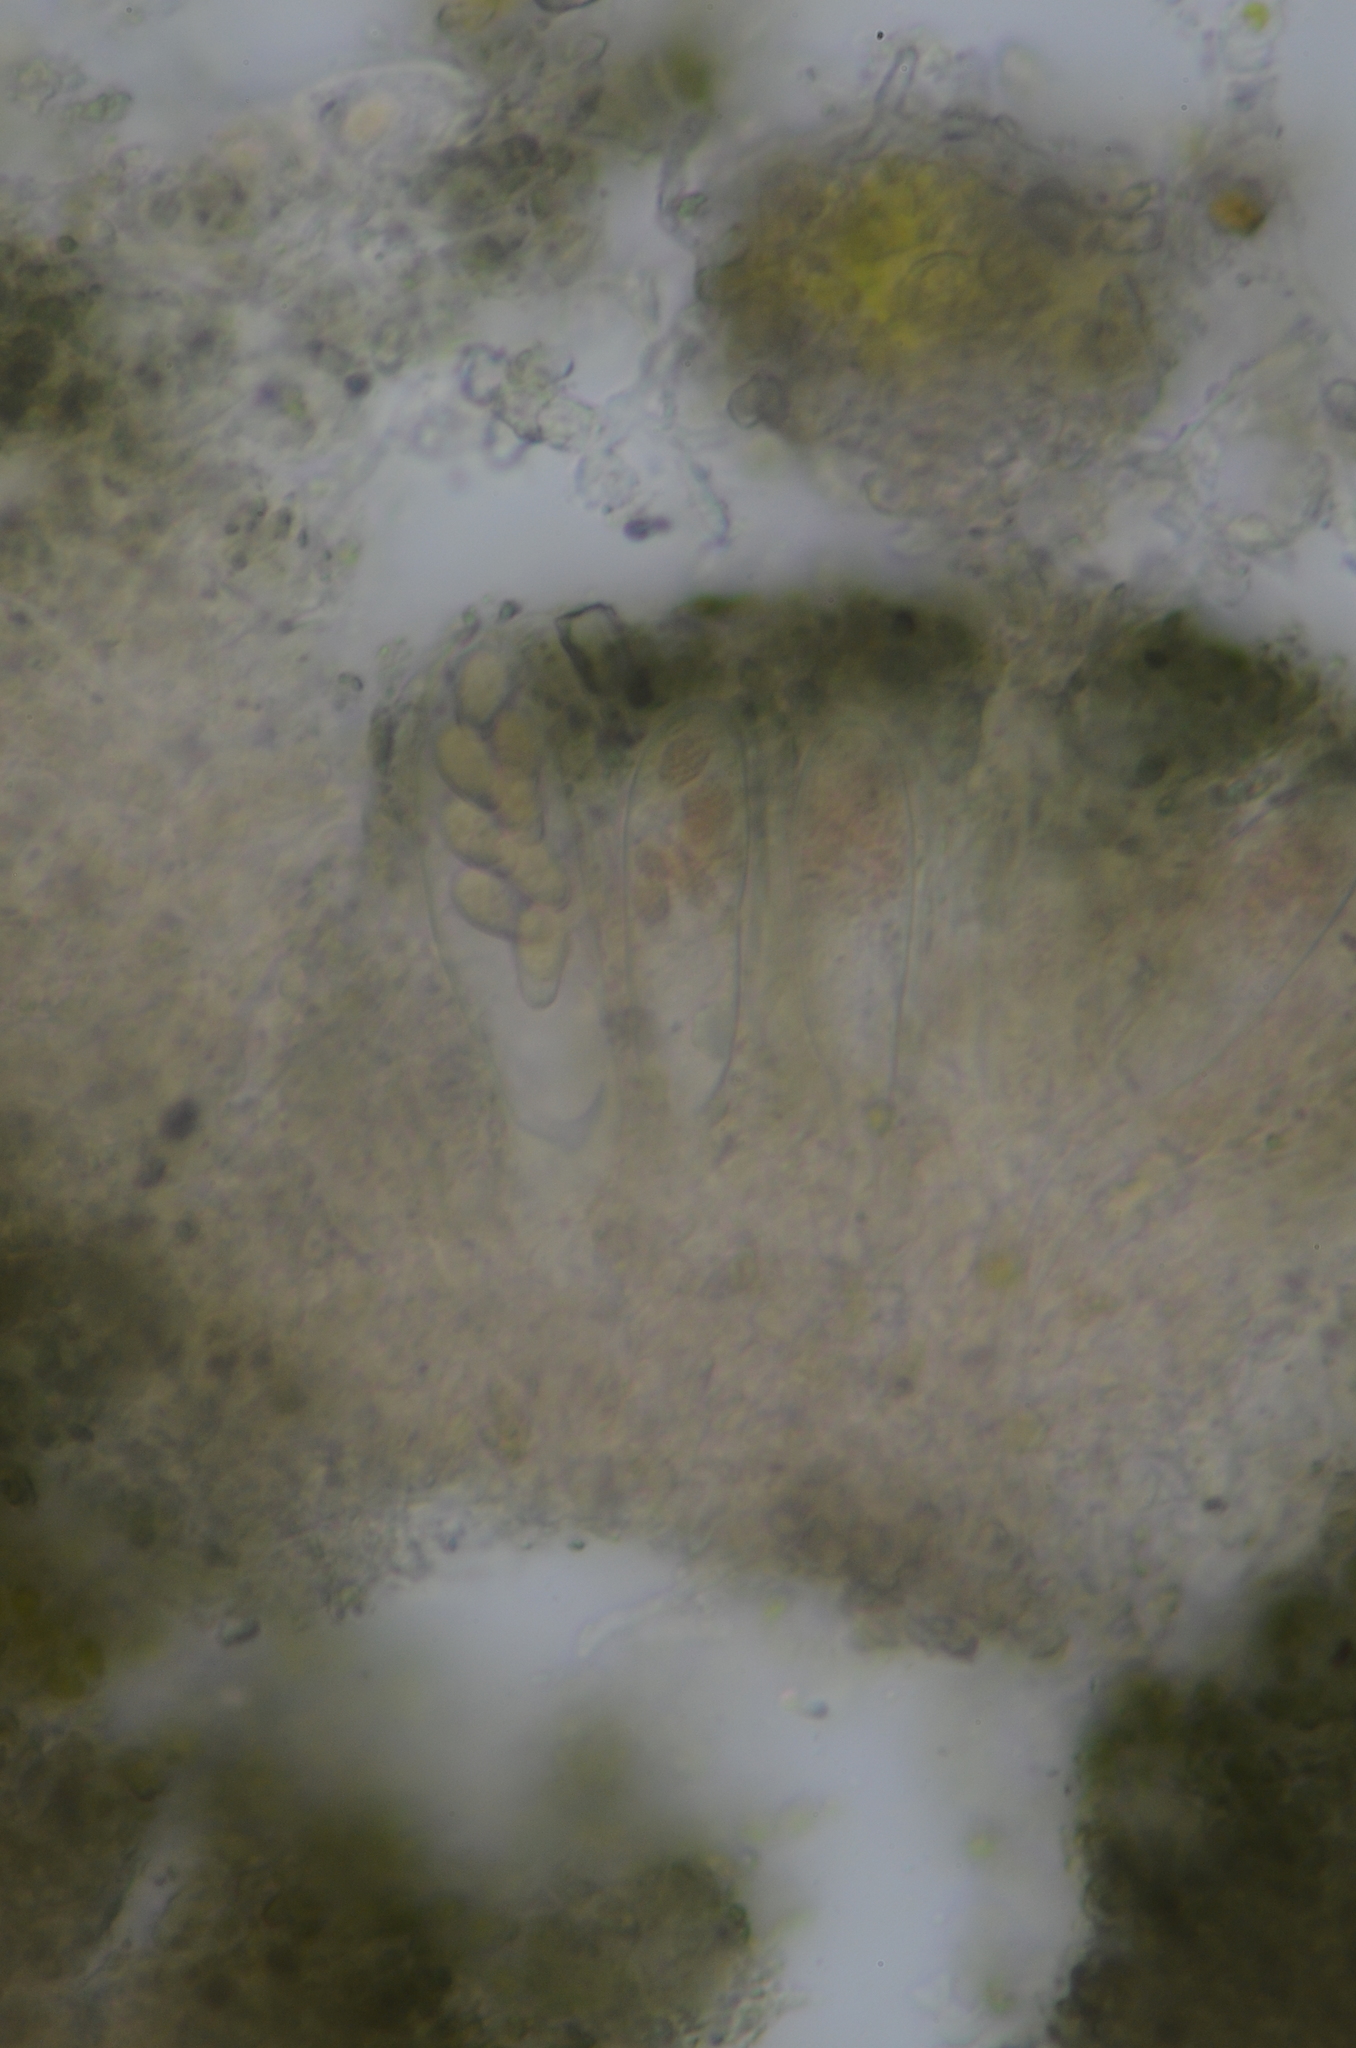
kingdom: Fungi
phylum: Ascomycota
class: Lecanoromycetes
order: Baeomycetales
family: Trapeliaceae
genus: Trapeliopsis
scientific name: Trapeliopsis granulosa
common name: Granular mottled-disk lichen
